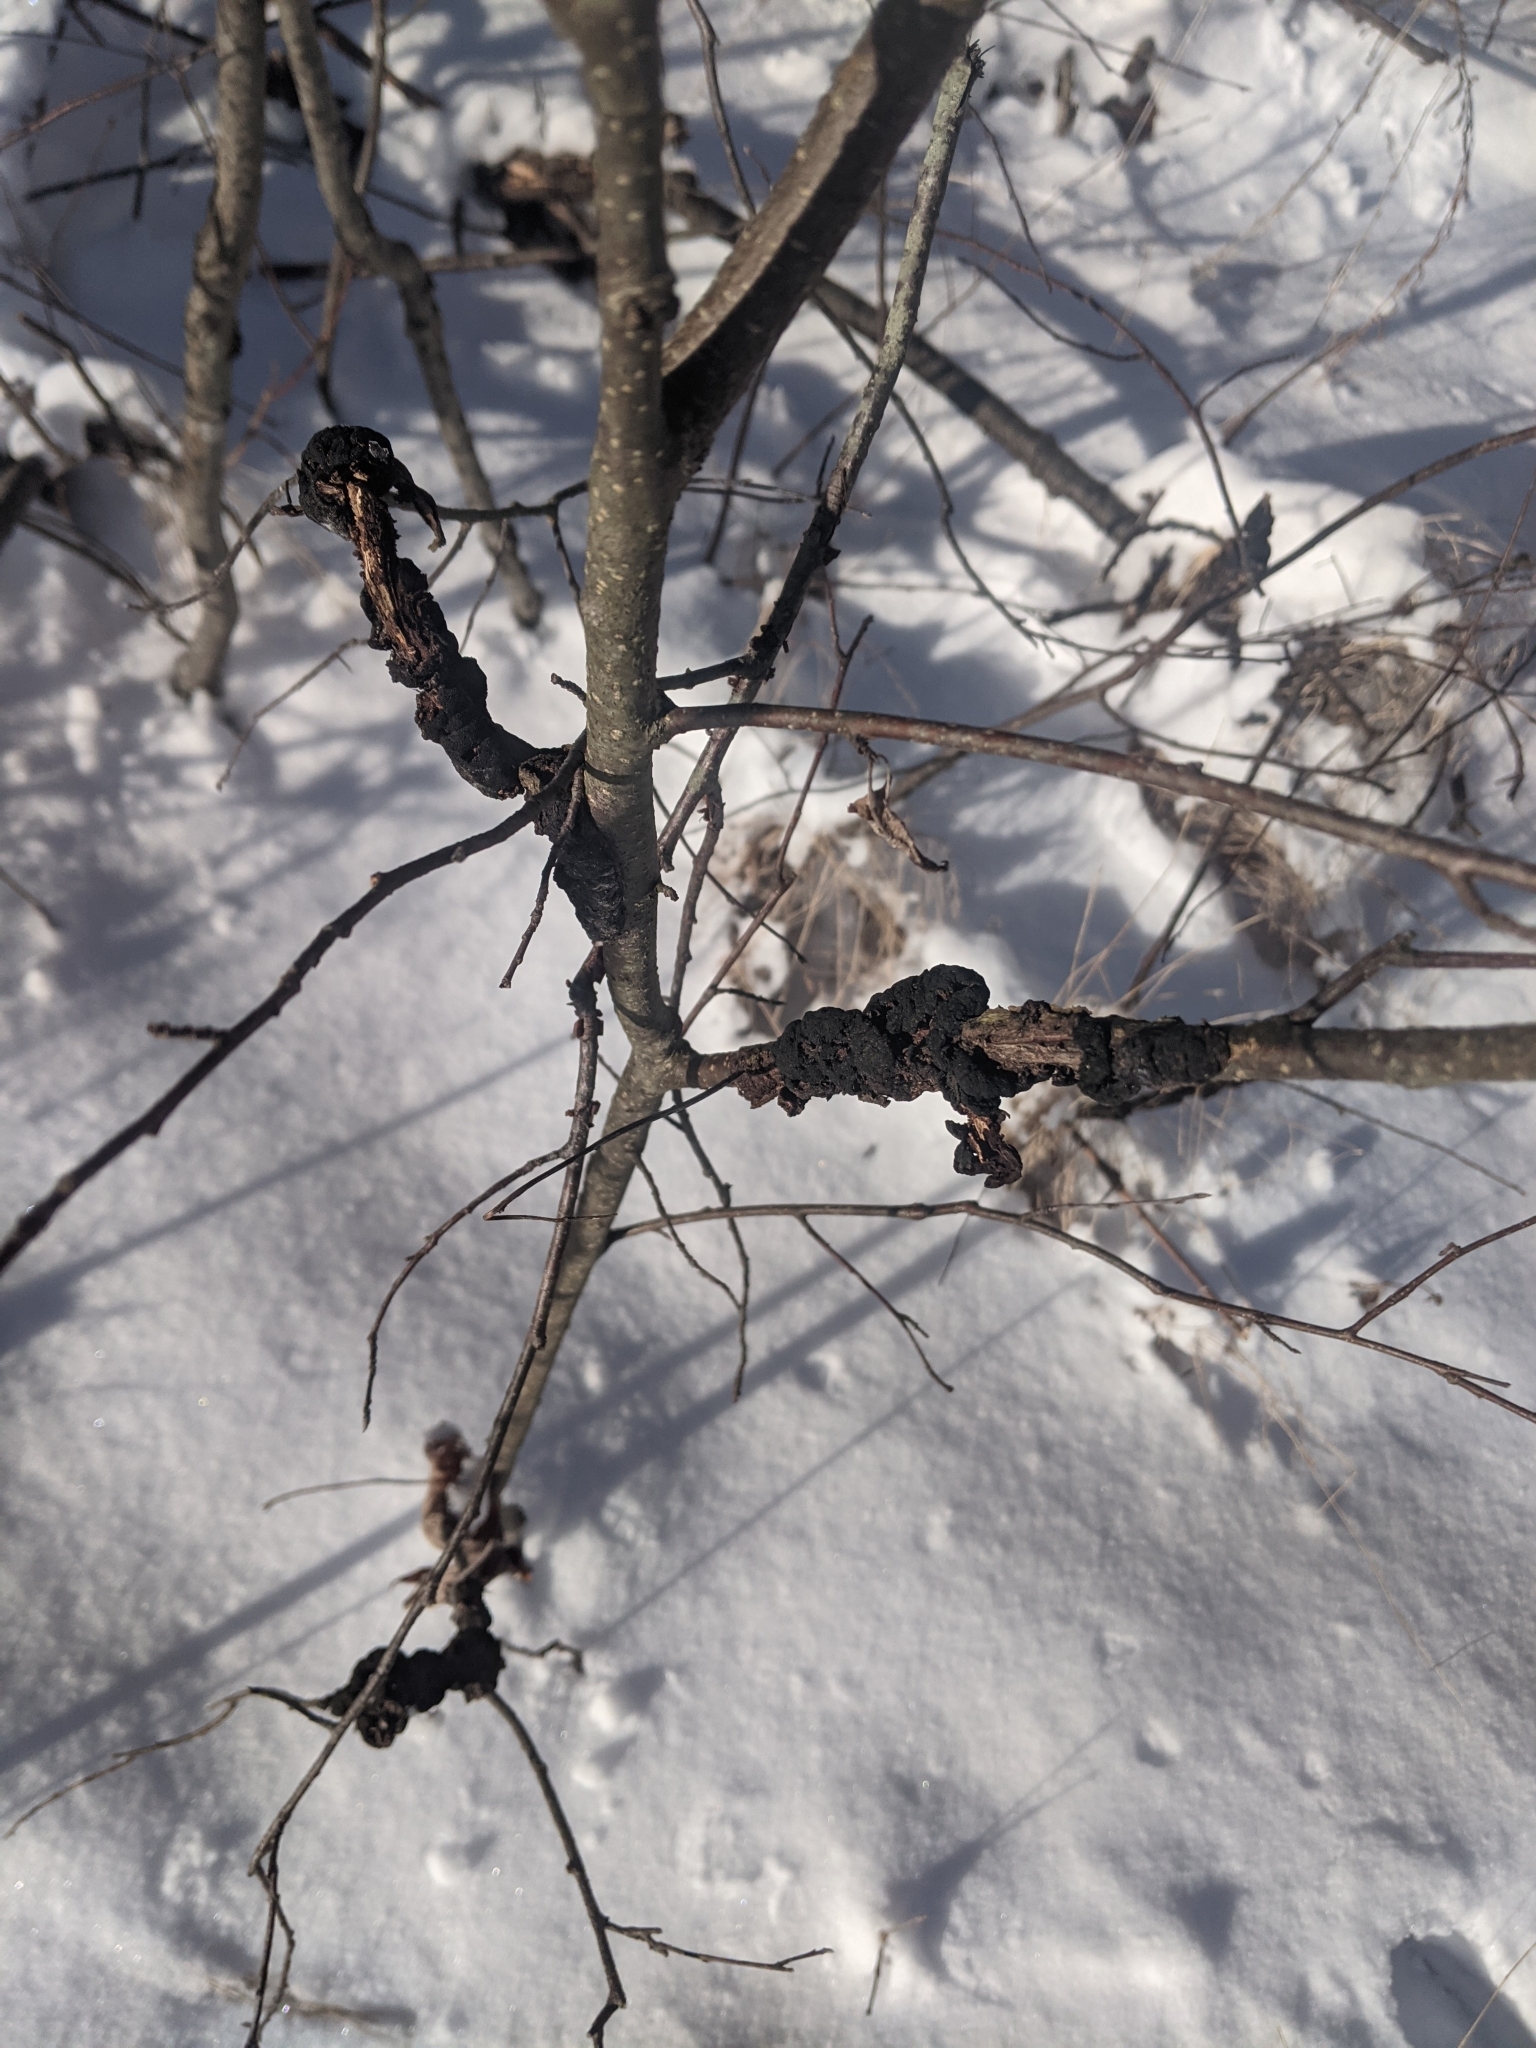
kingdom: Fungi
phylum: Ascomycota
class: Dothideomycetes
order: Venturiales
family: Venturiaceae
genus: Apiosporina
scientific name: Apiosporina morbosa
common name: Black knot
